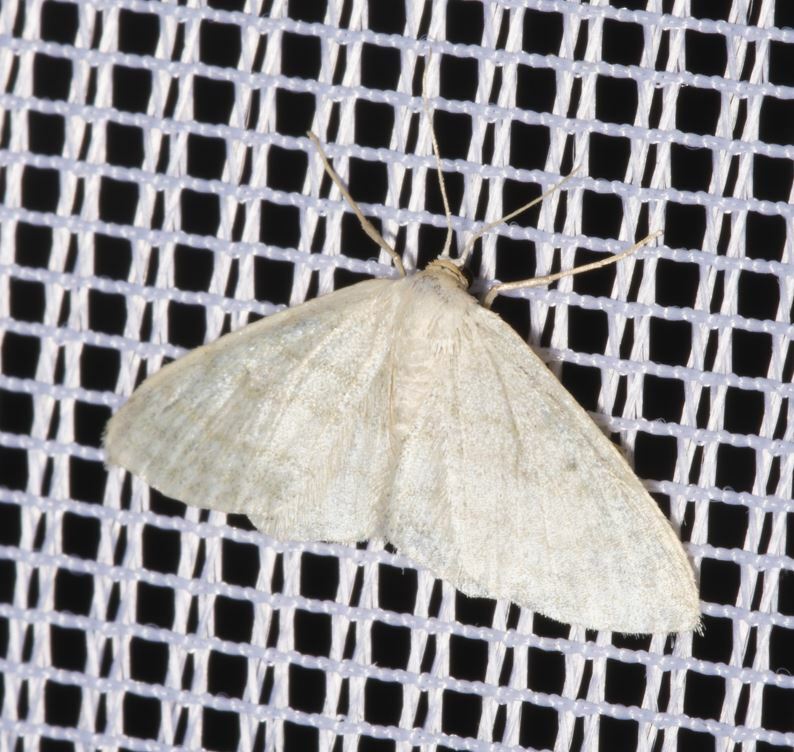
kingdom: Animalia
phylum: Arthropoda
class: Insecta
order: Lepidoptera
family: Geometridae
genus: Idaea
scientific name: Idaea subsericeata
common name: Satin wave
